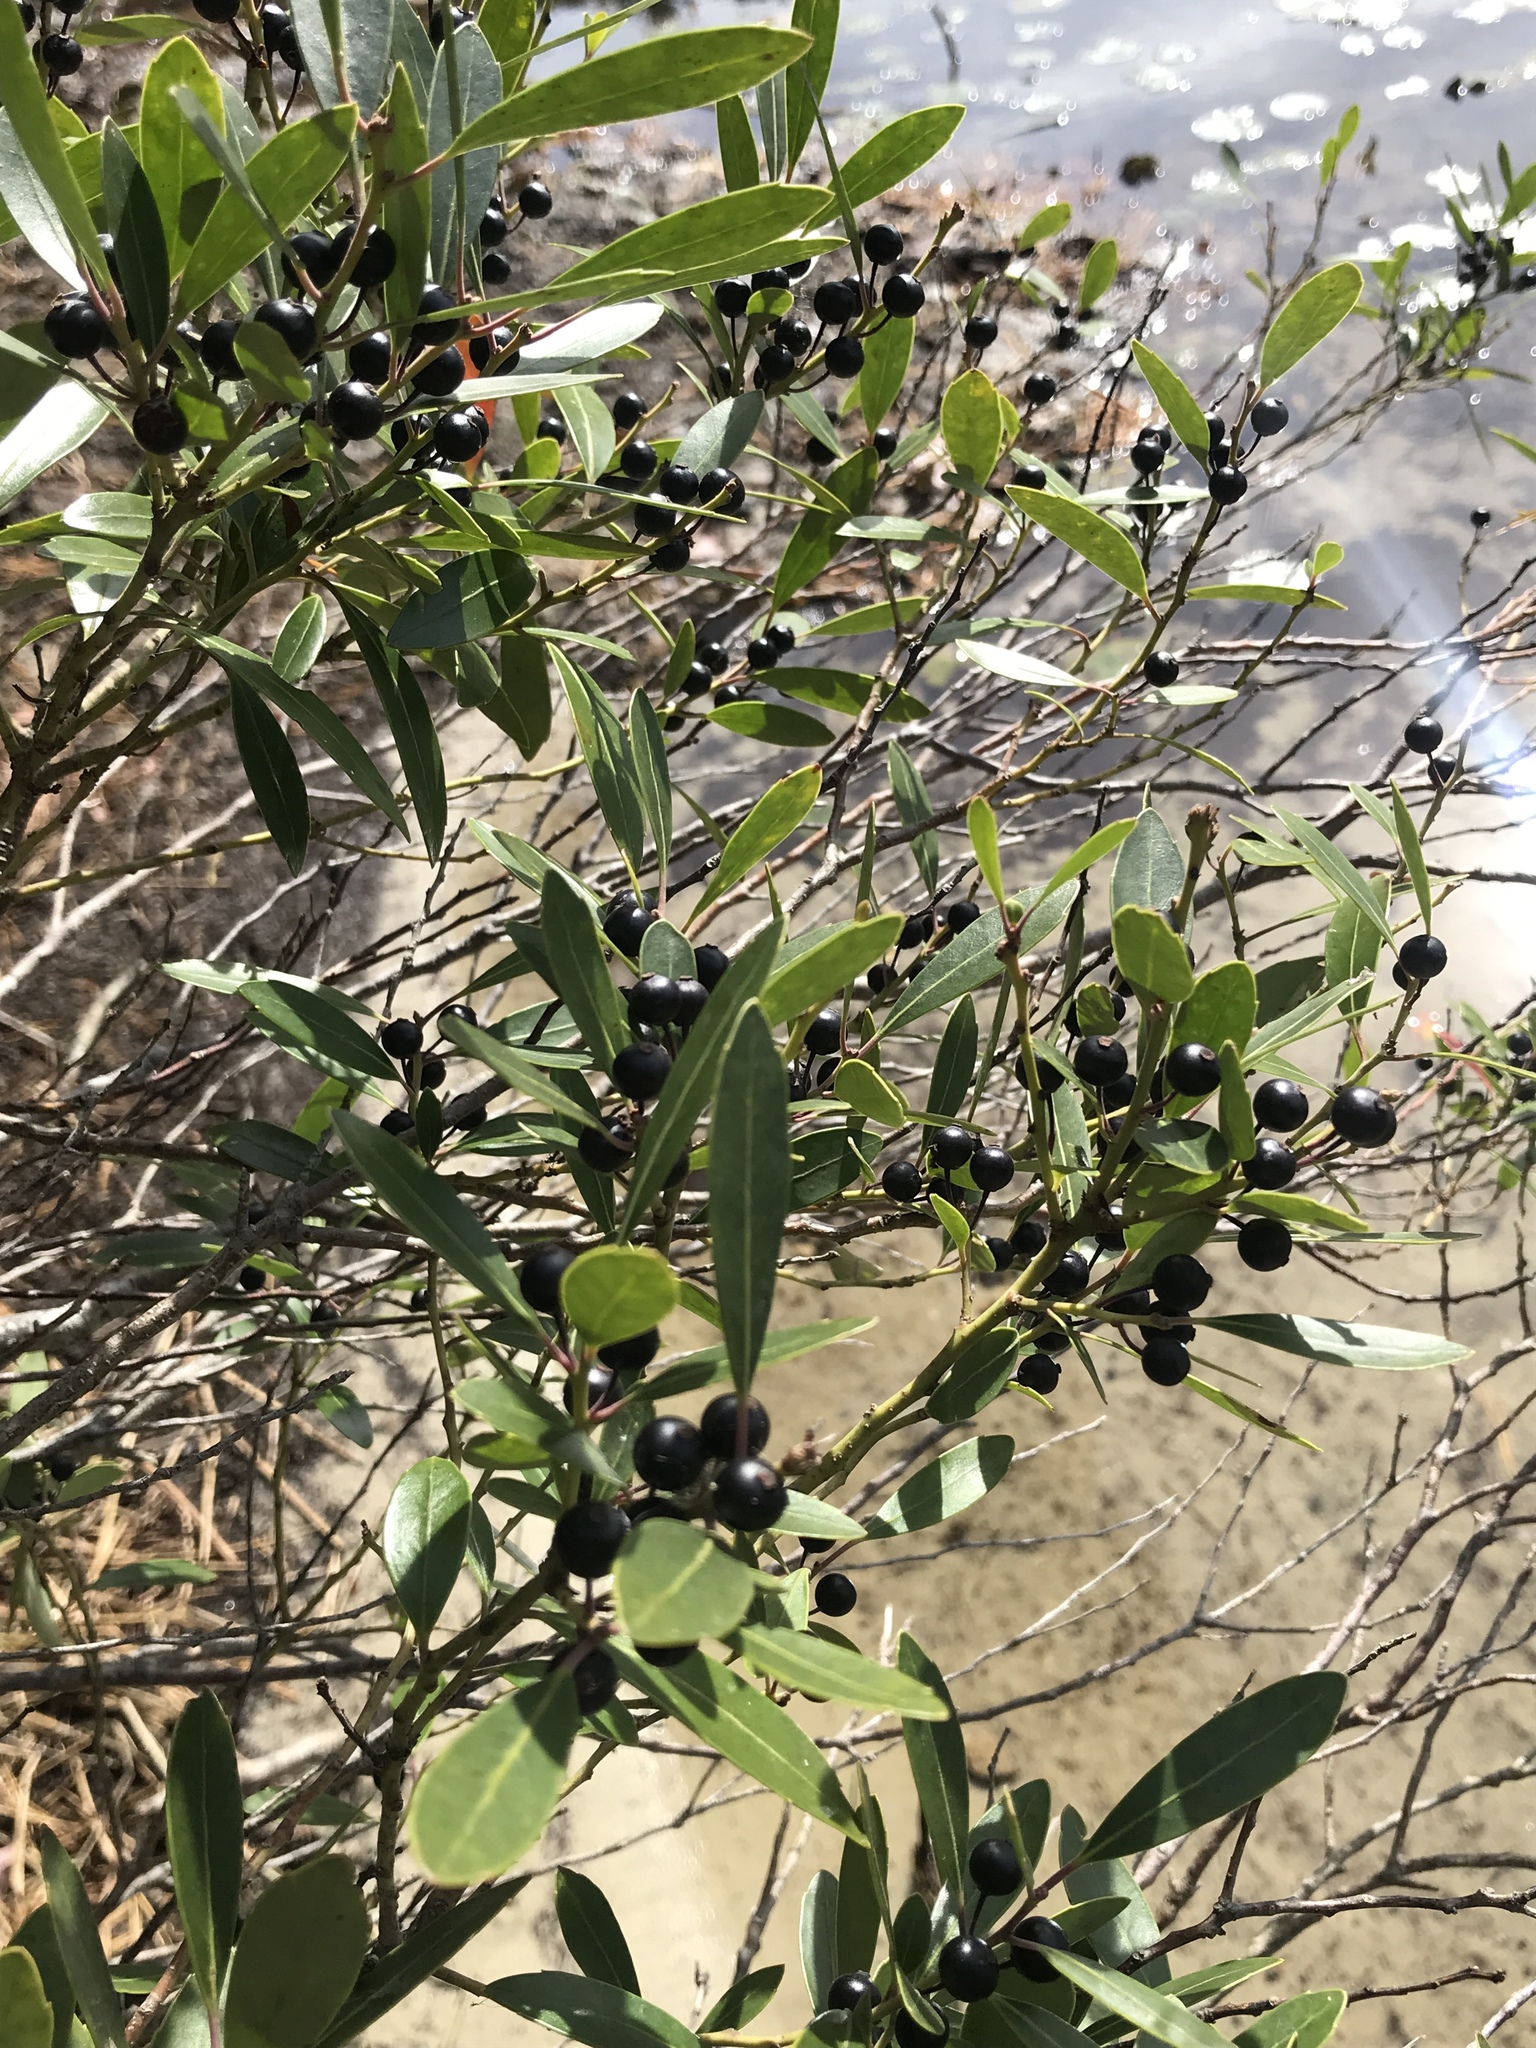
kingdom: Plantae
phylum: Tracheophyta
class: Magnoliopsida
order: Aquifoliales
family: Aquifoliaceae
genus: Ilex
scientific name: Ilex glabra
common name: Bitter gallberry
